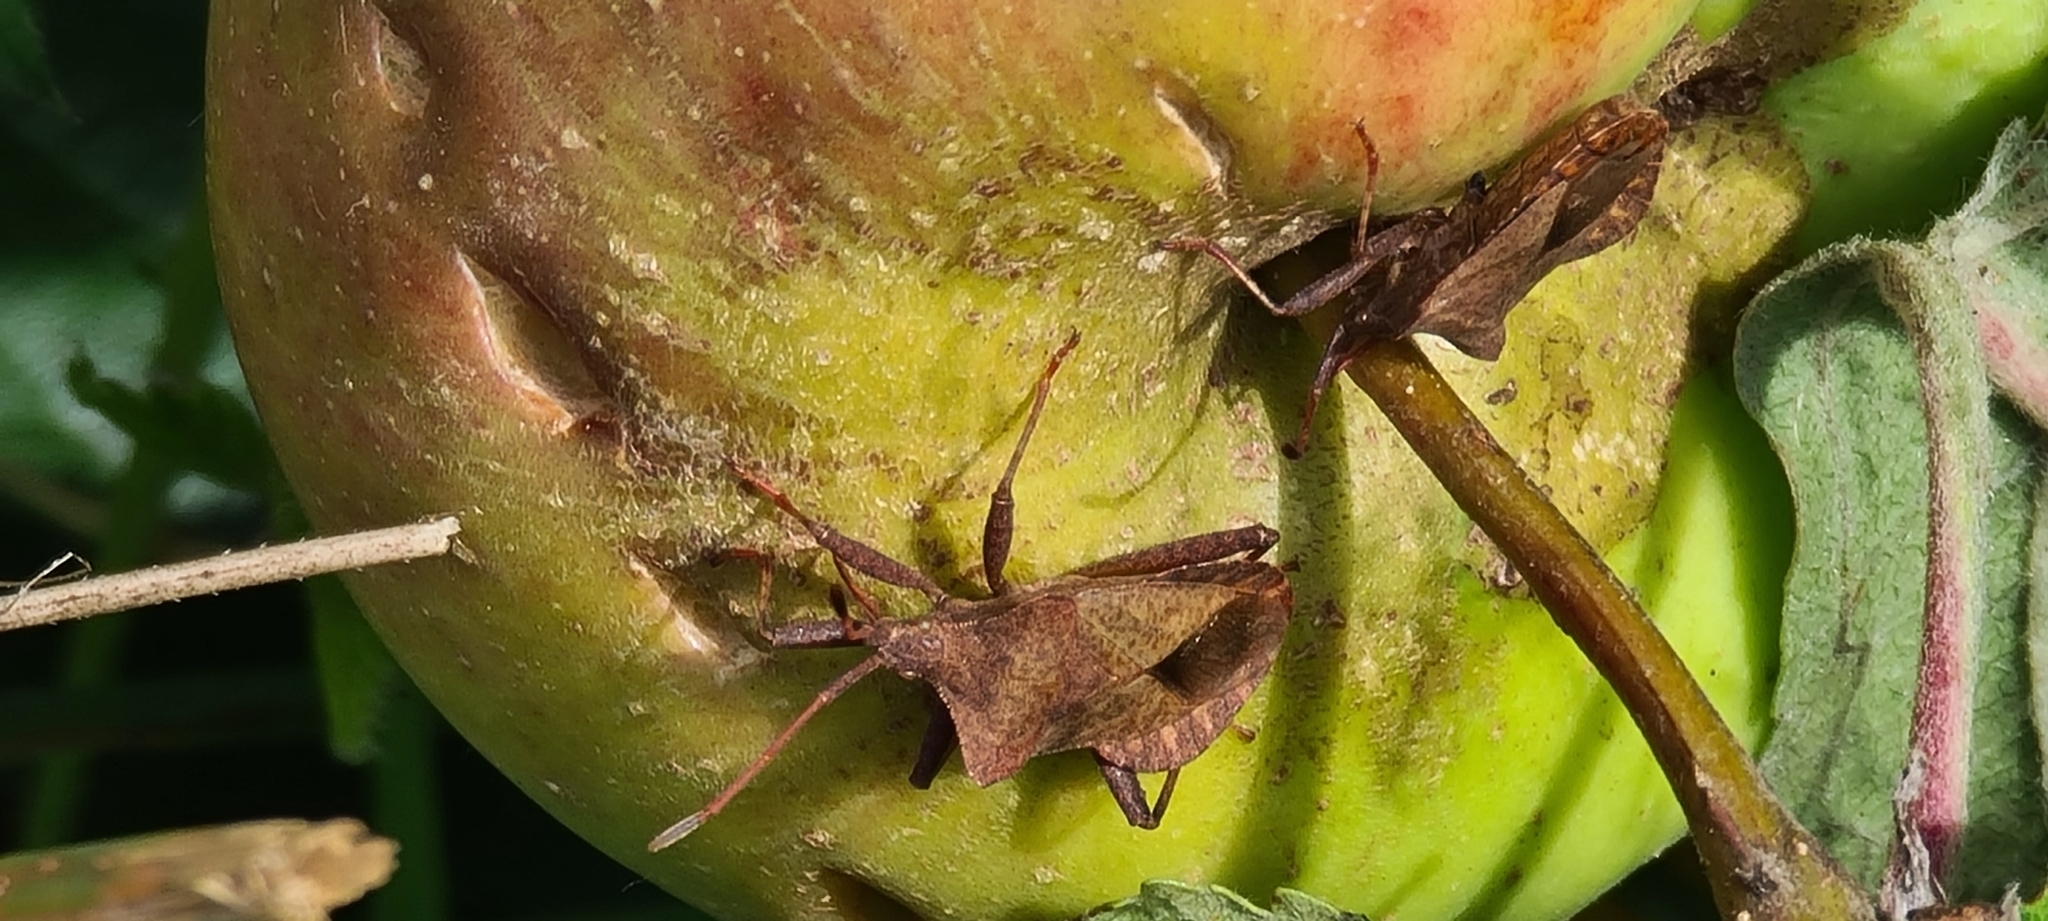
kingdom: Animalia
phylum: Arthropoda
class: Insecta
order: Hemiptera
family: Coreidae
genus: Coreus
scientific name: Coreus marginatus
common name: Dock bug
